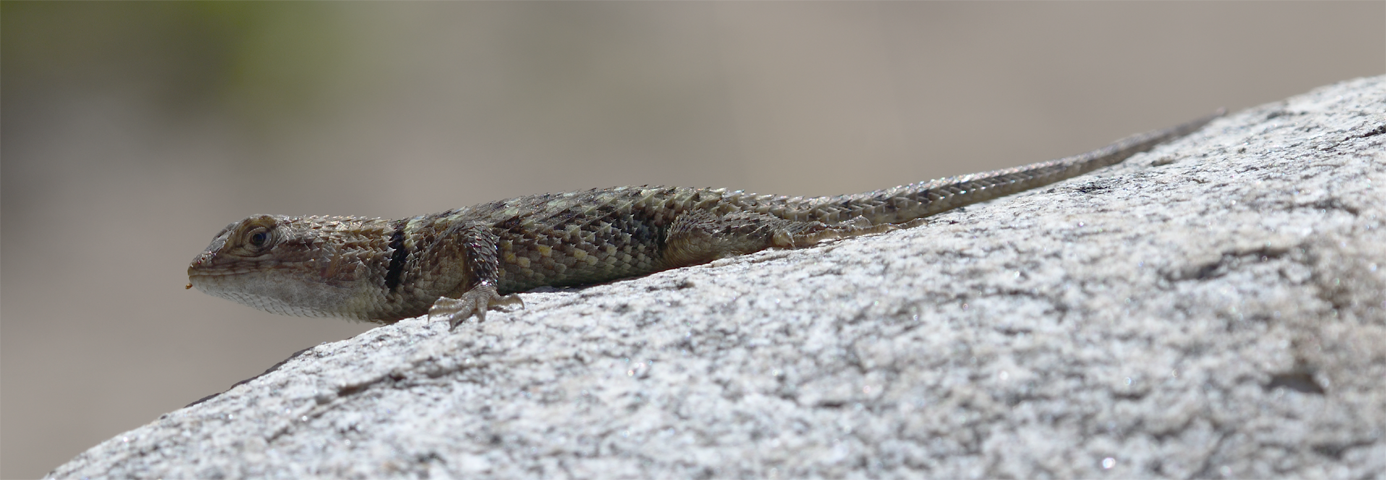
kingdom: Animalia
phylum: Chordata
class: Squamata
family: Phrynosomatidae
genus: Sceloporus
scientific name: Sceloporus magister
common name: Desert spiny lizard
